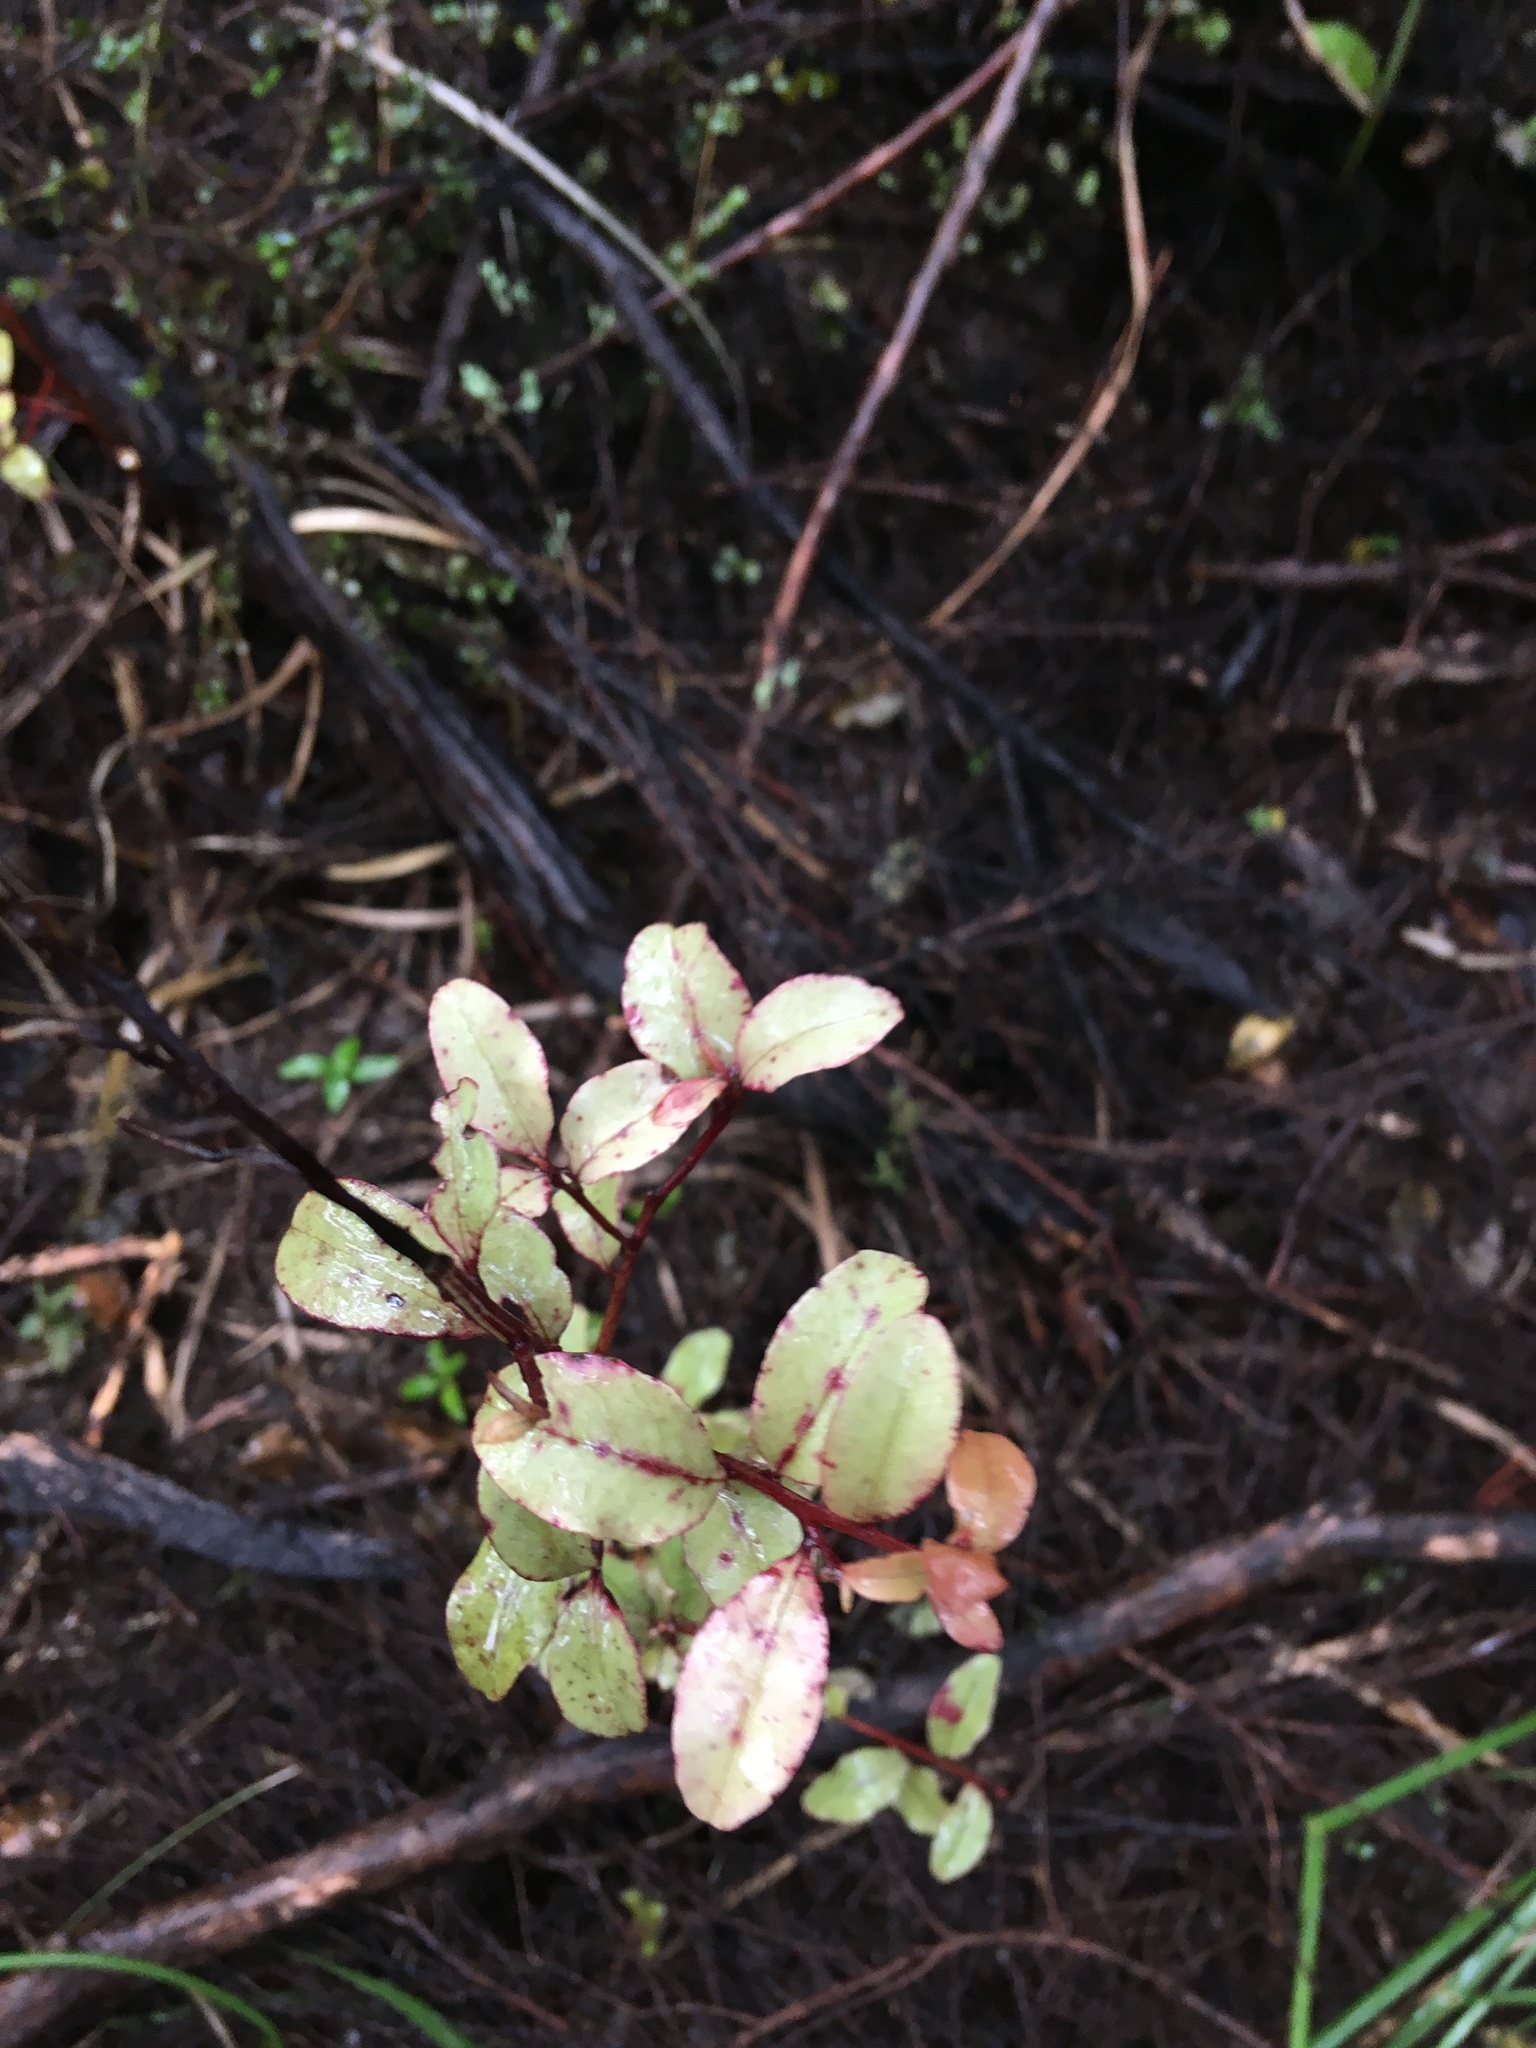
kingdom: Plantae
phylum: Tracheophyta
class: Magnoliopsida
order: Ericales
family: Primulaceae
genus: Myrsine
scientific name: Myrsine australis
